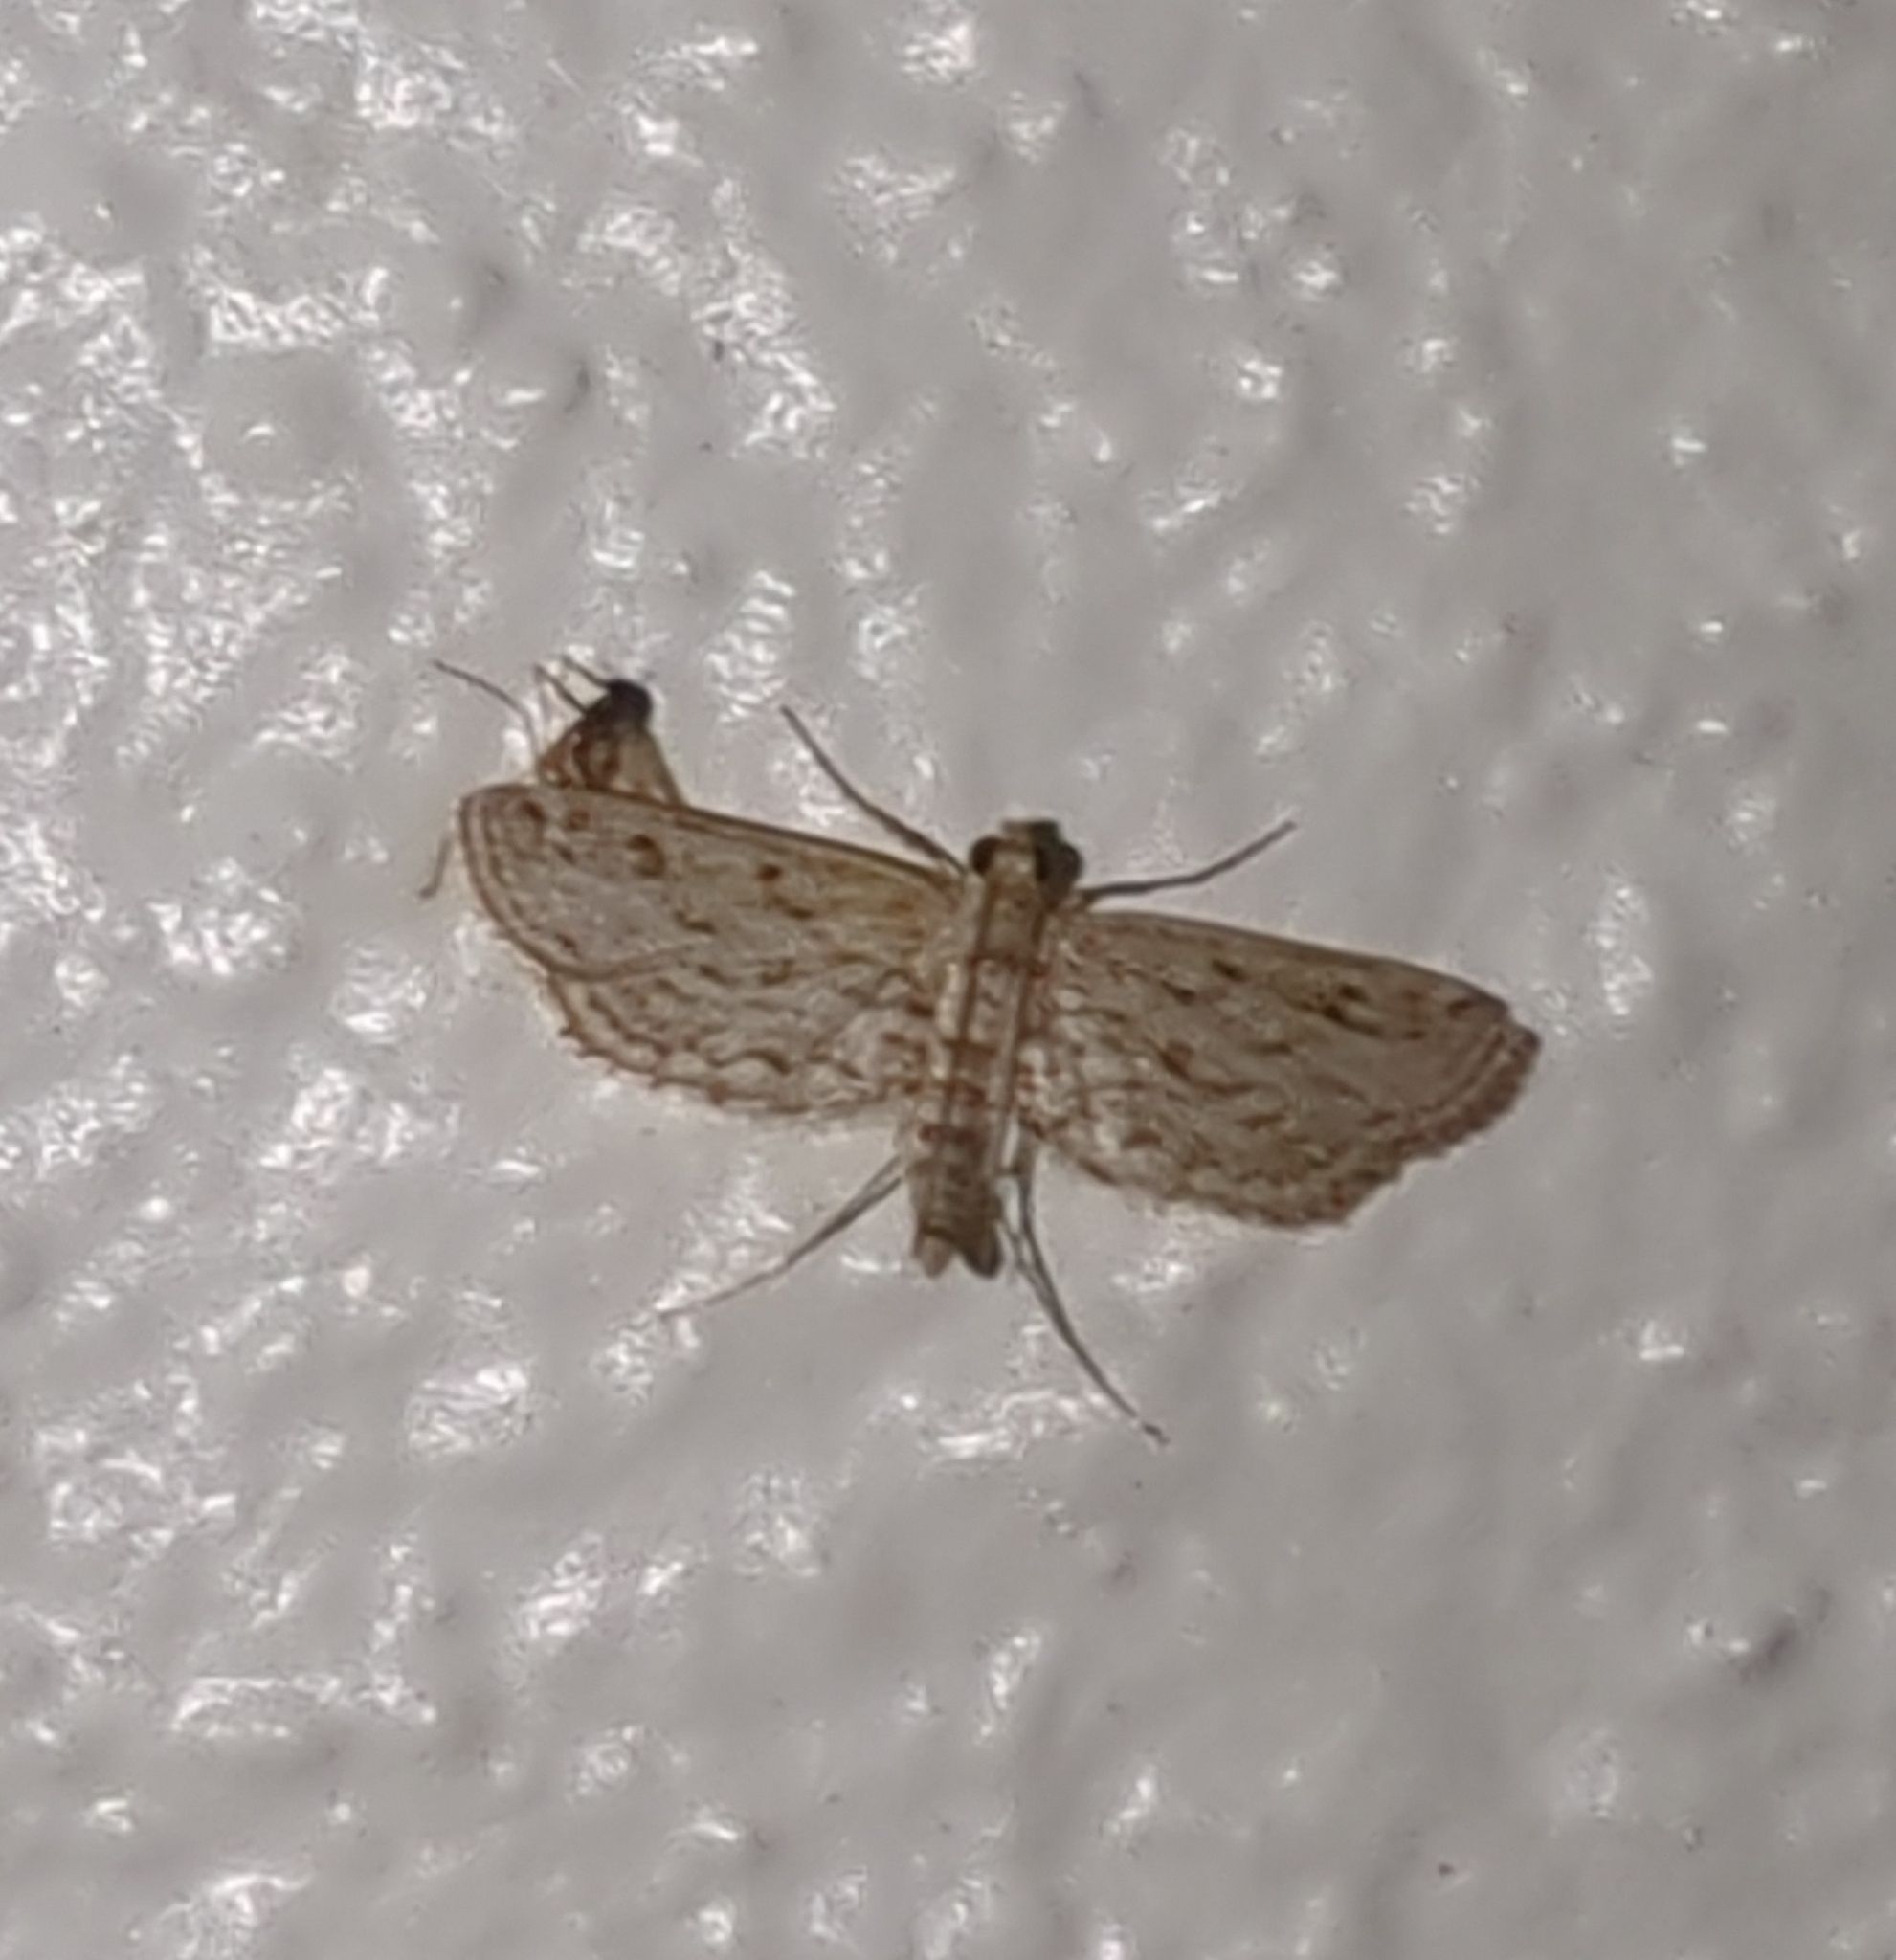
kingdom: Animalia
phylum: Arthropoda
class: Insecta
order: Lepidoptera
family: Crambidae
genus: Parapoynx
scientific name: Parapoynx allionealis
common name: Bladderwort casemaker
